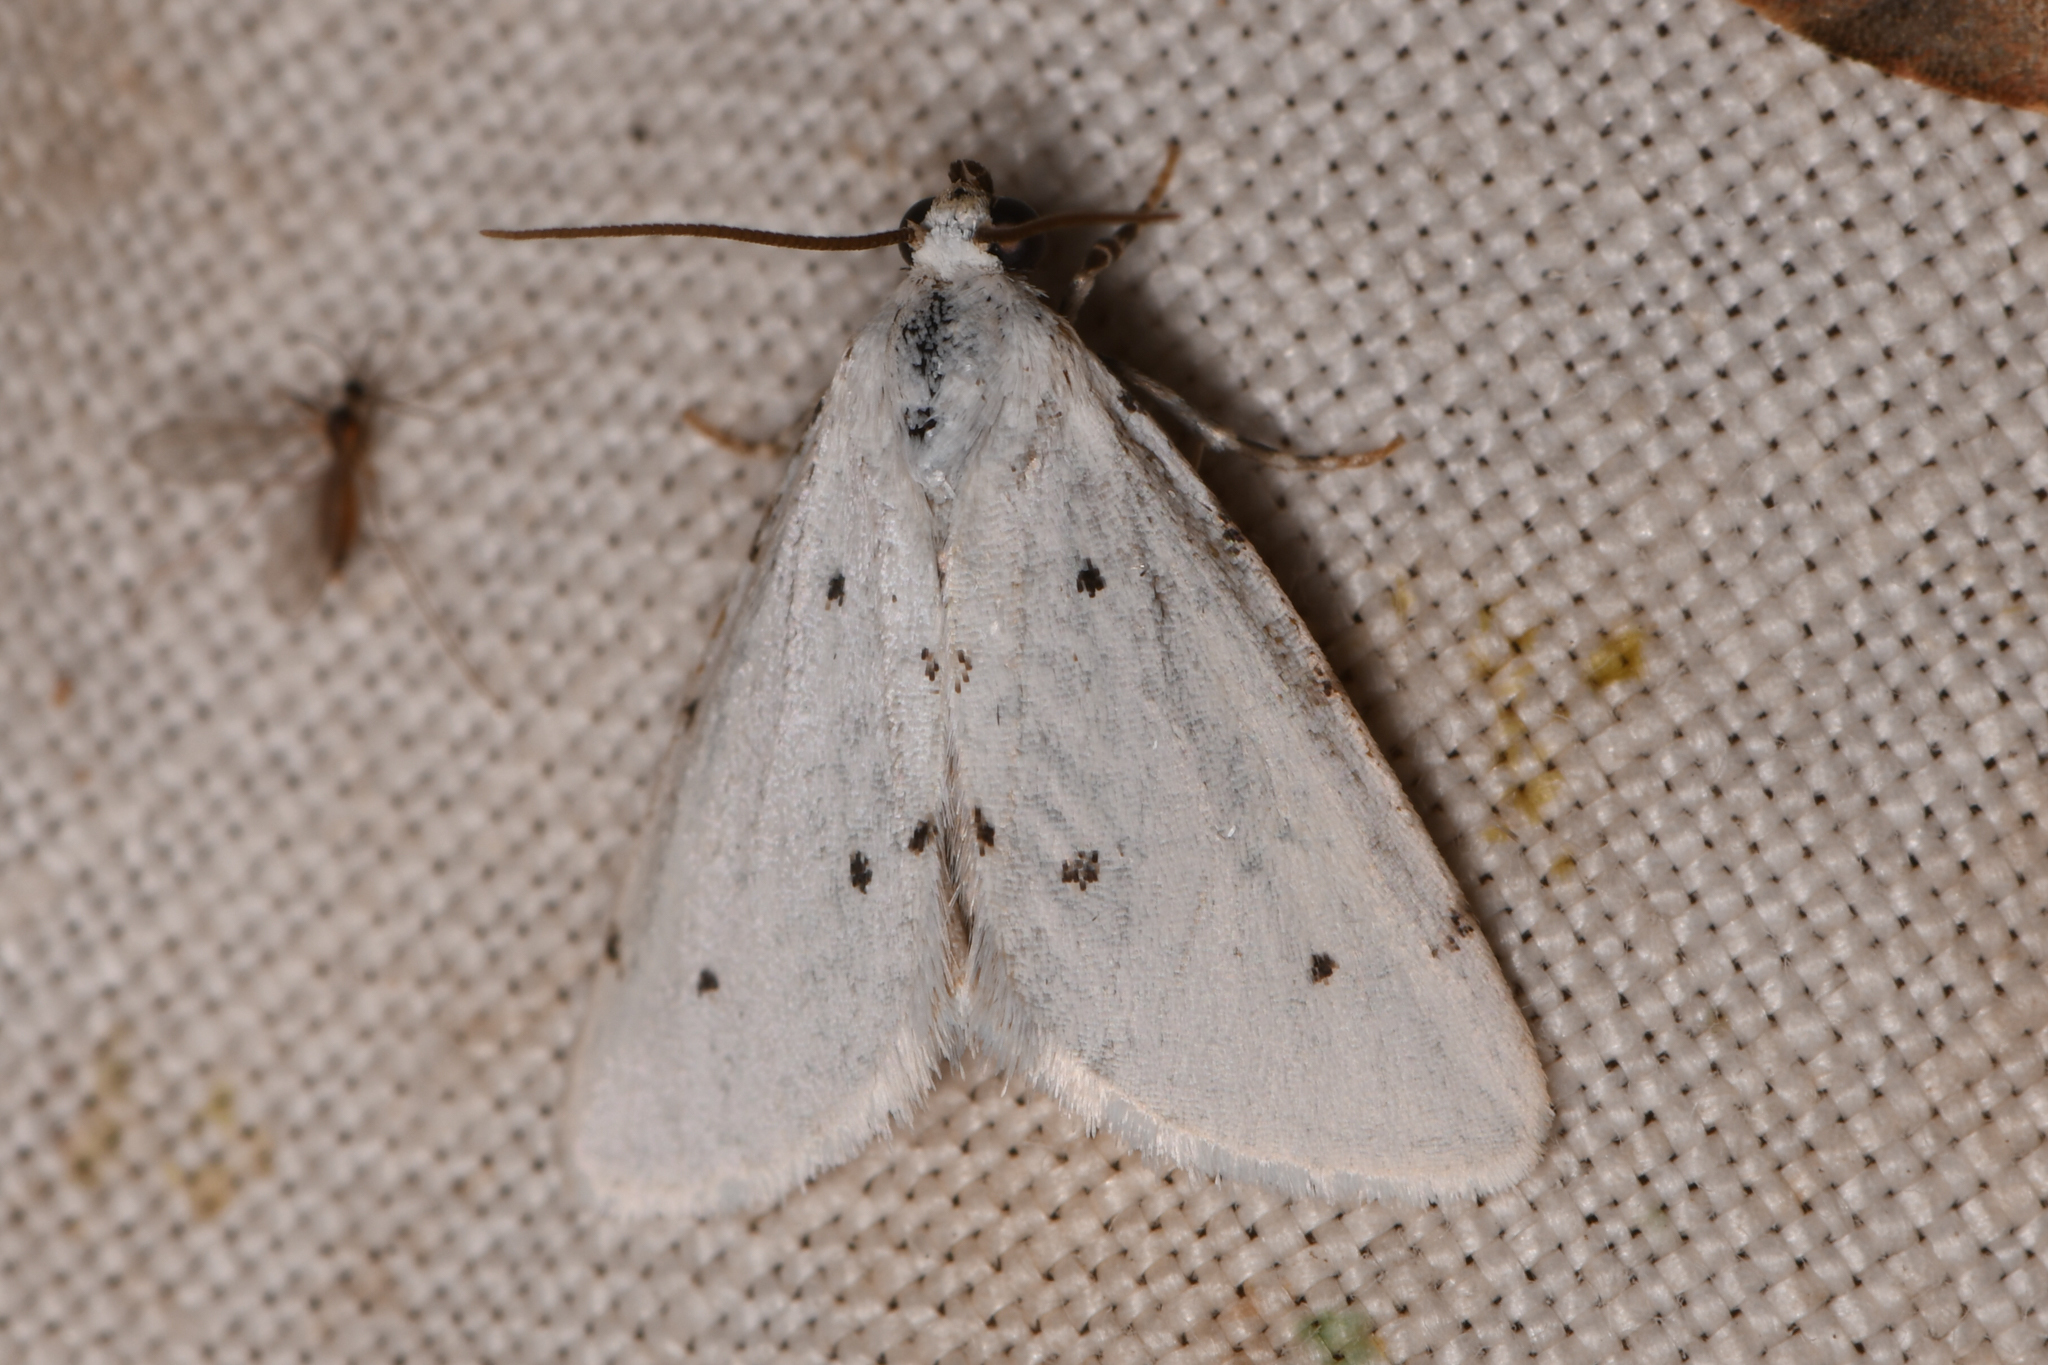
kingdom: Animalia
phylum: Arthropoda
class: Insecta
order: Lepidoptera
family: Noctuidae
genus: Grotellaforma
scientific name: Grotellaforma lactea
